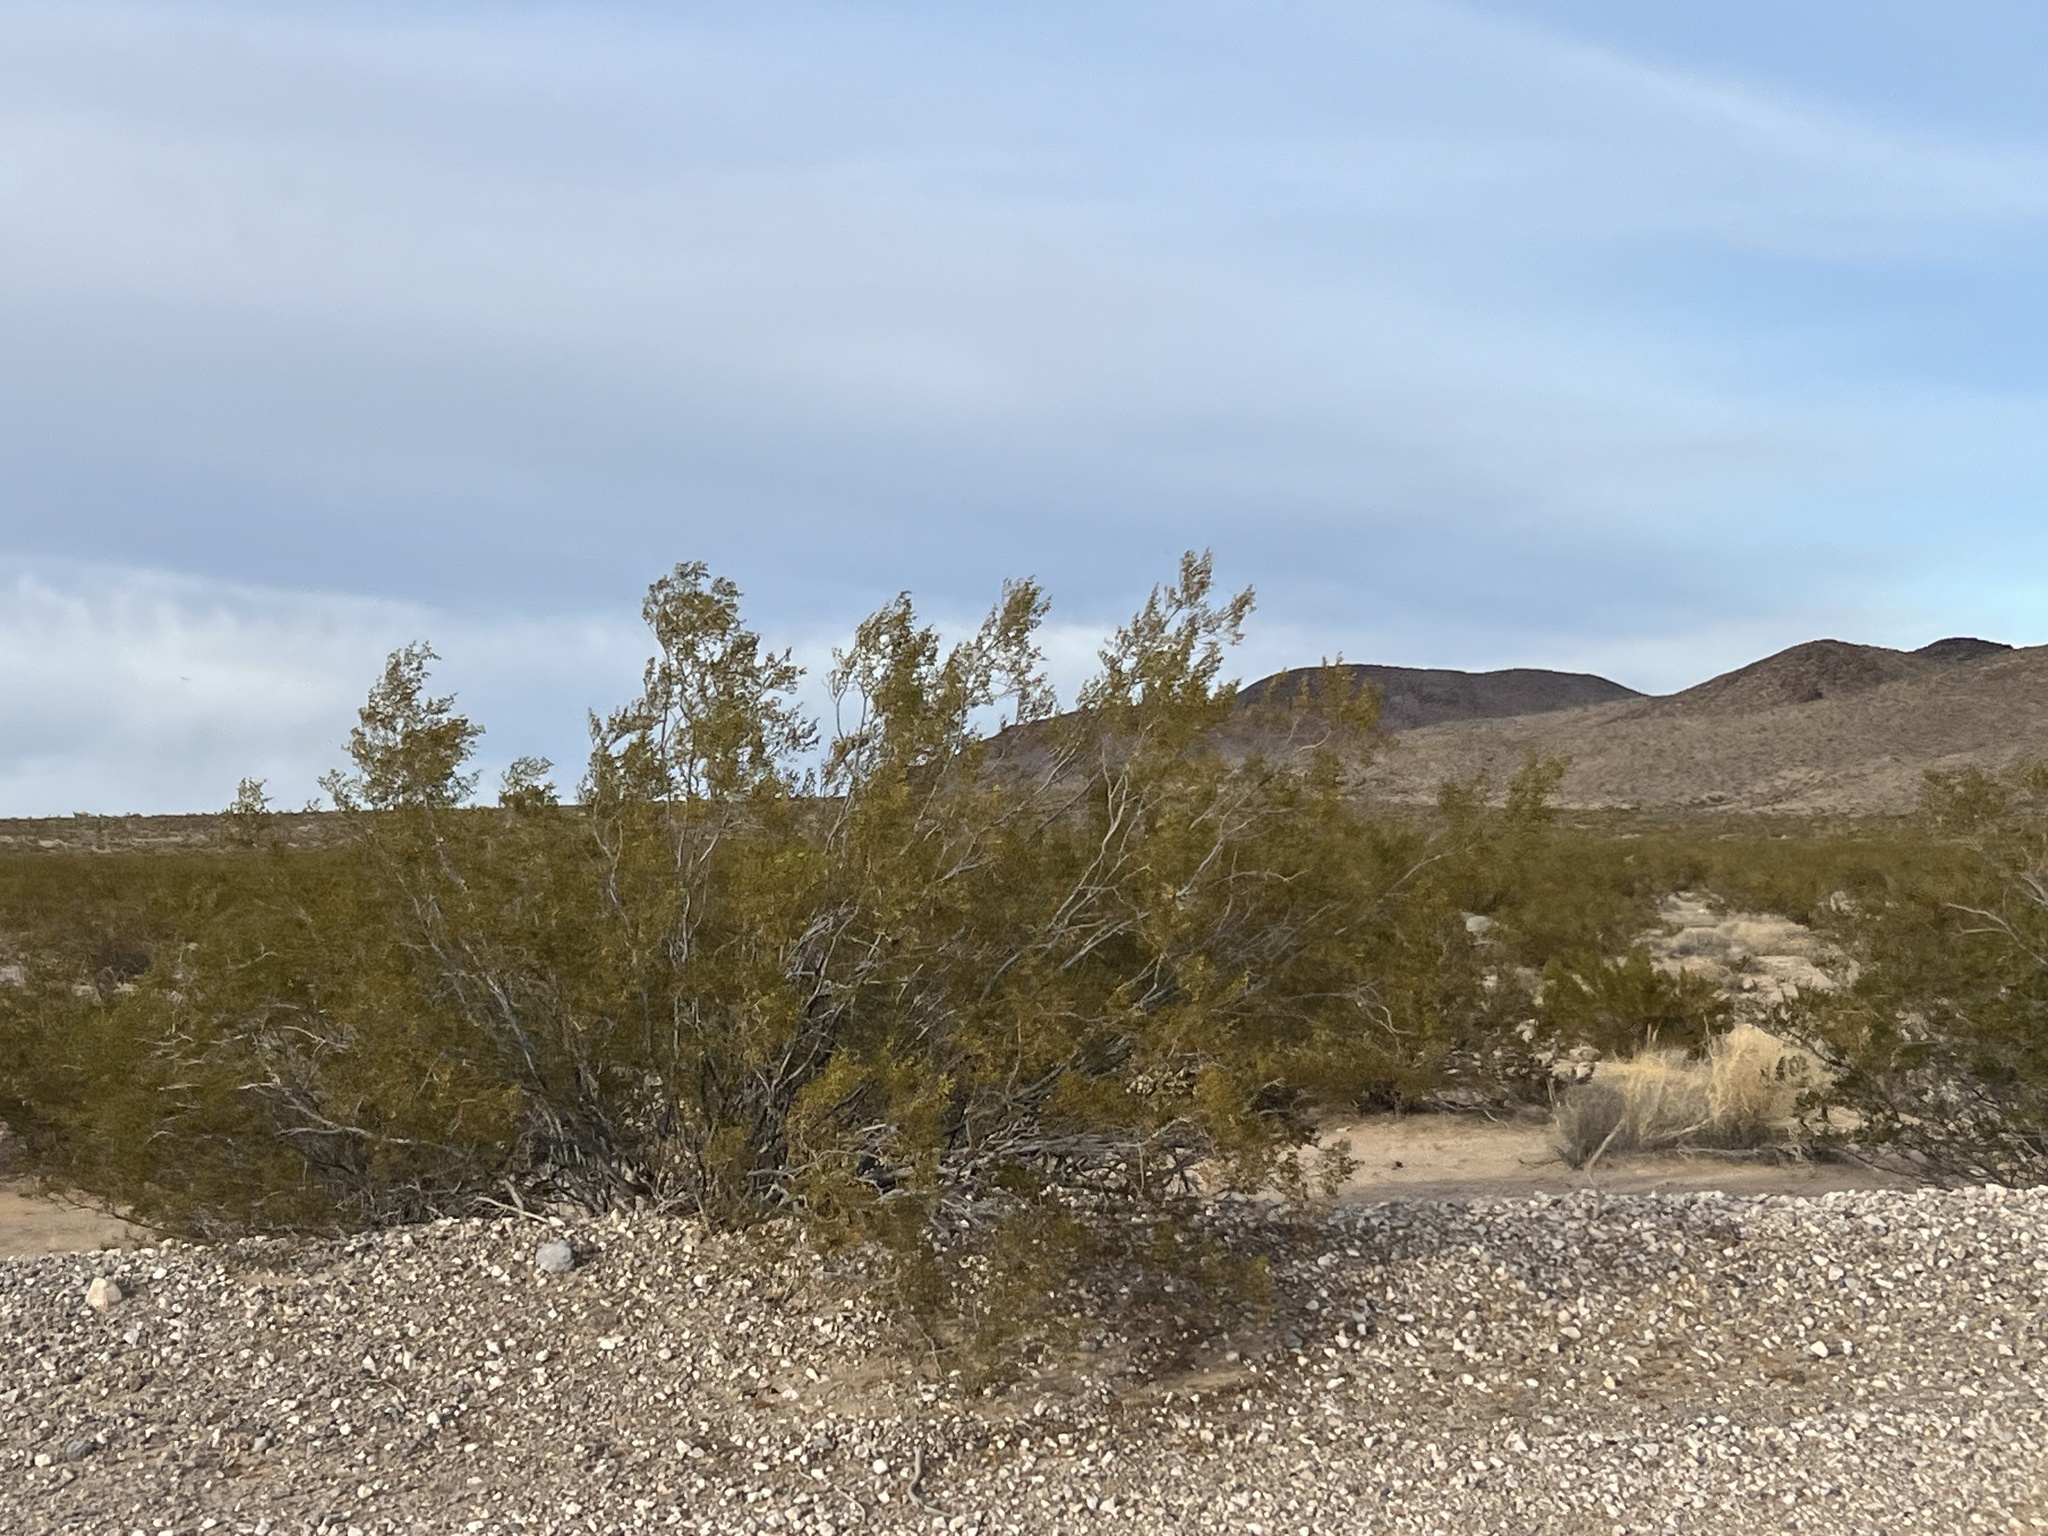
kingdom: Plantae
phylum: Tracheophyta
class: Magnoliopsida
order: Zygophyllales
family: Zygophyllaceae
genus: Larrea
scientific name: Larrea tridentata
